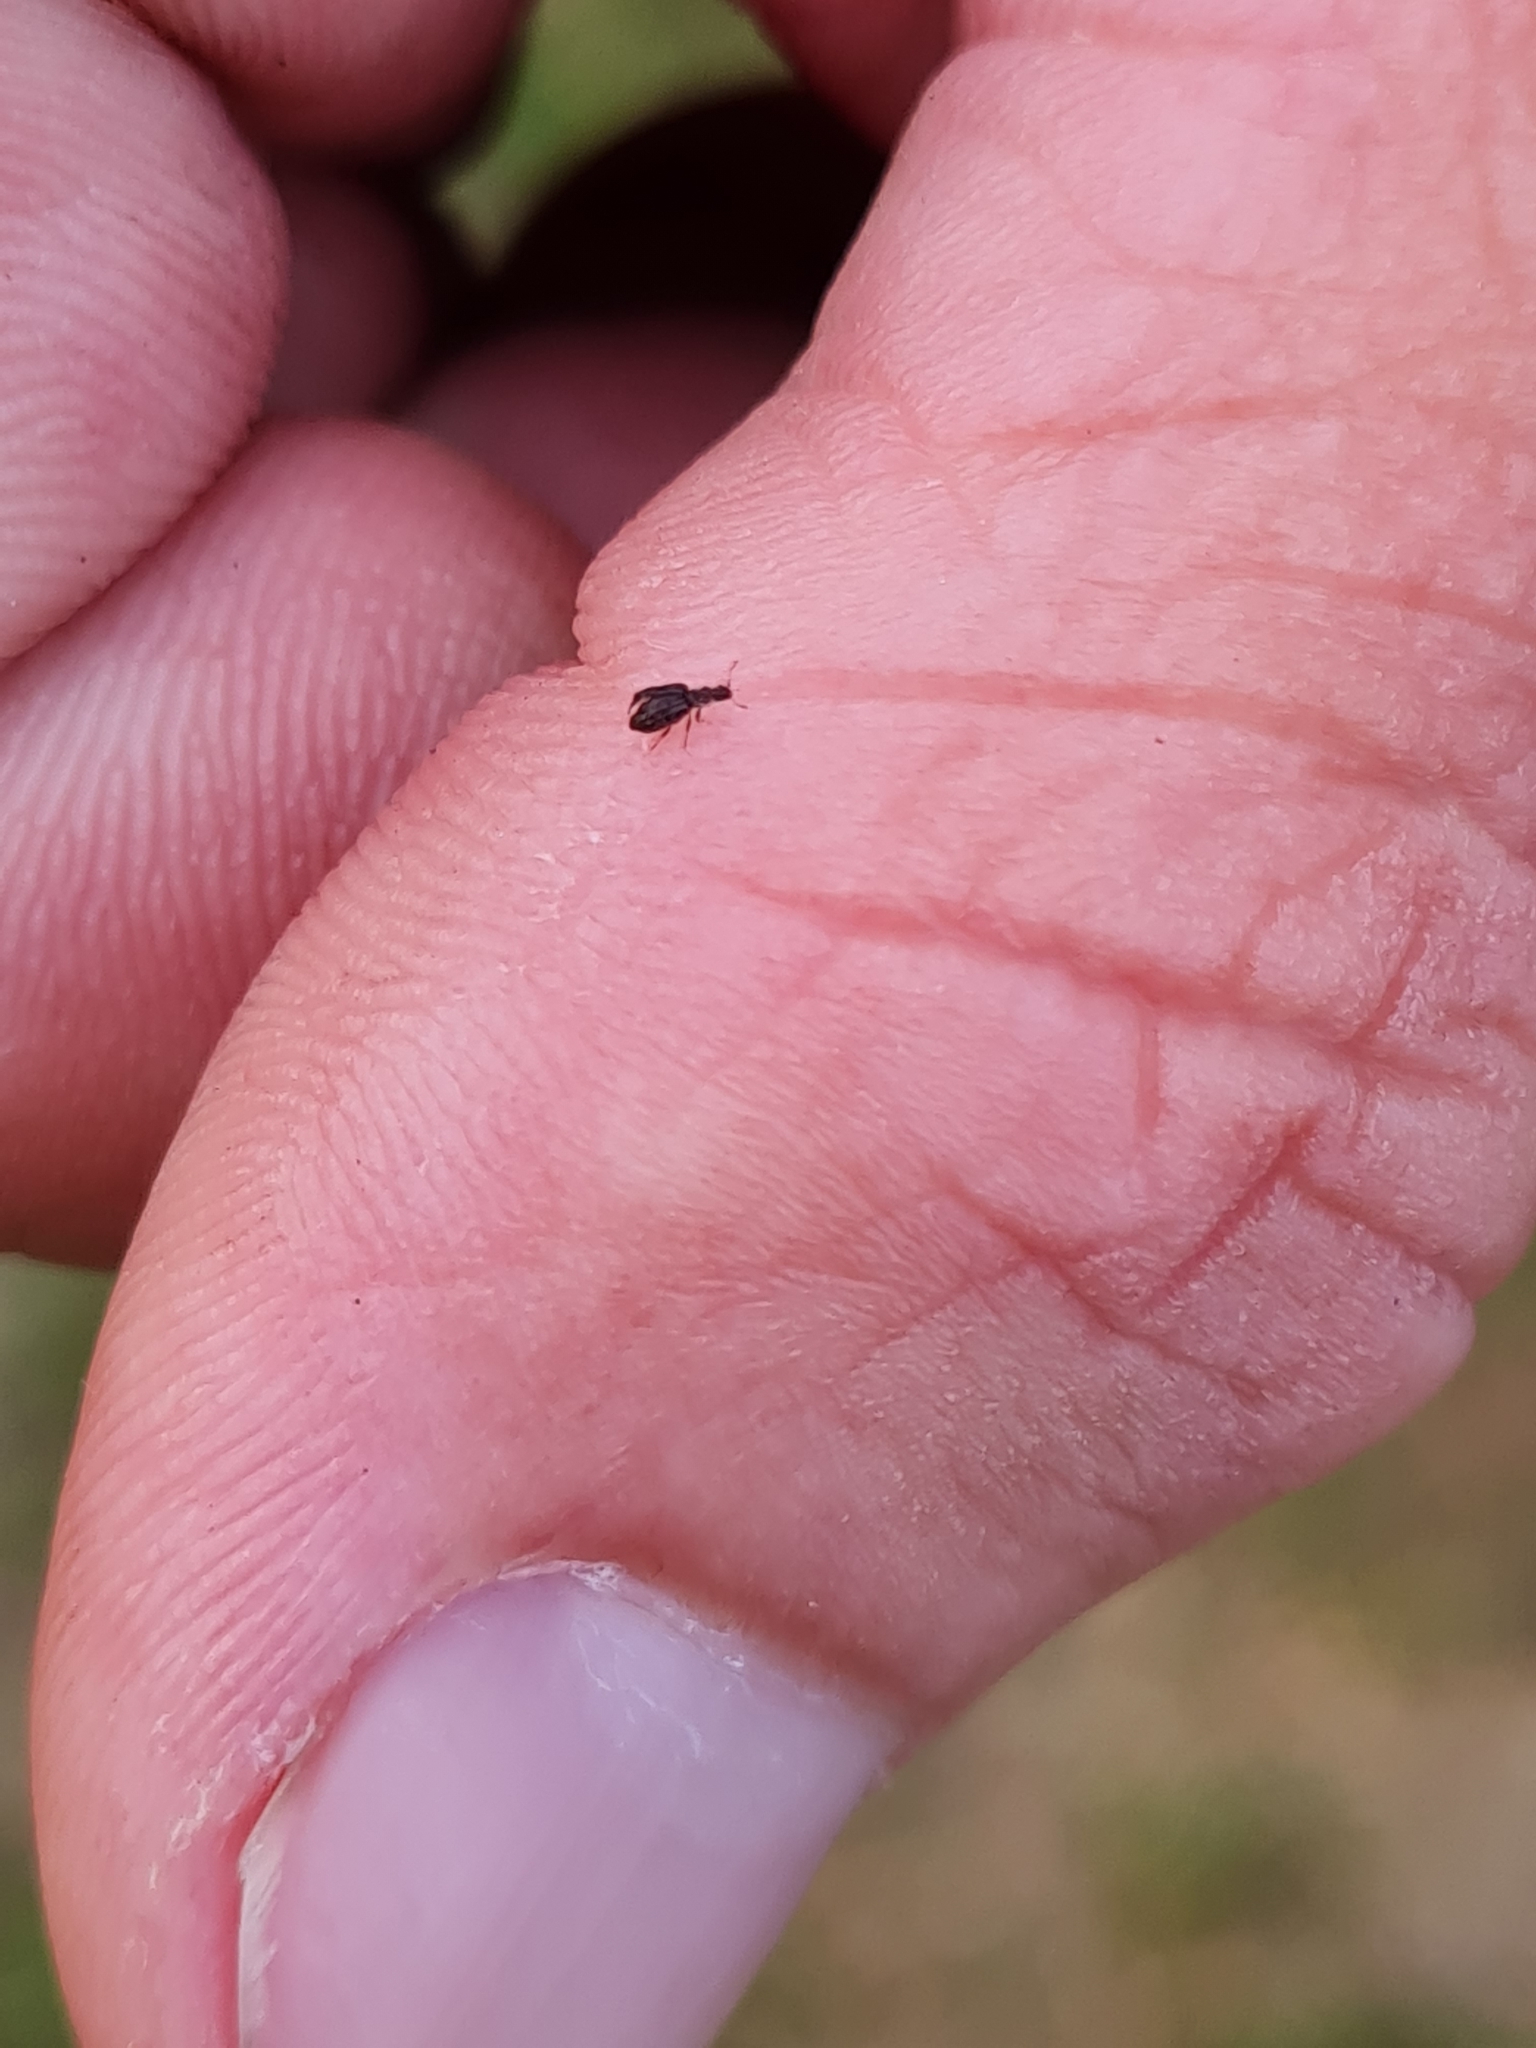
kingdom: Animalia
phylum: Arthropoda
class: Insecta
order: Coleoptera
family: Latridiidae
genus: Cartodere
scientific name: Cartodere nodifer
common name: Humpbacked minute scavenger beetle
